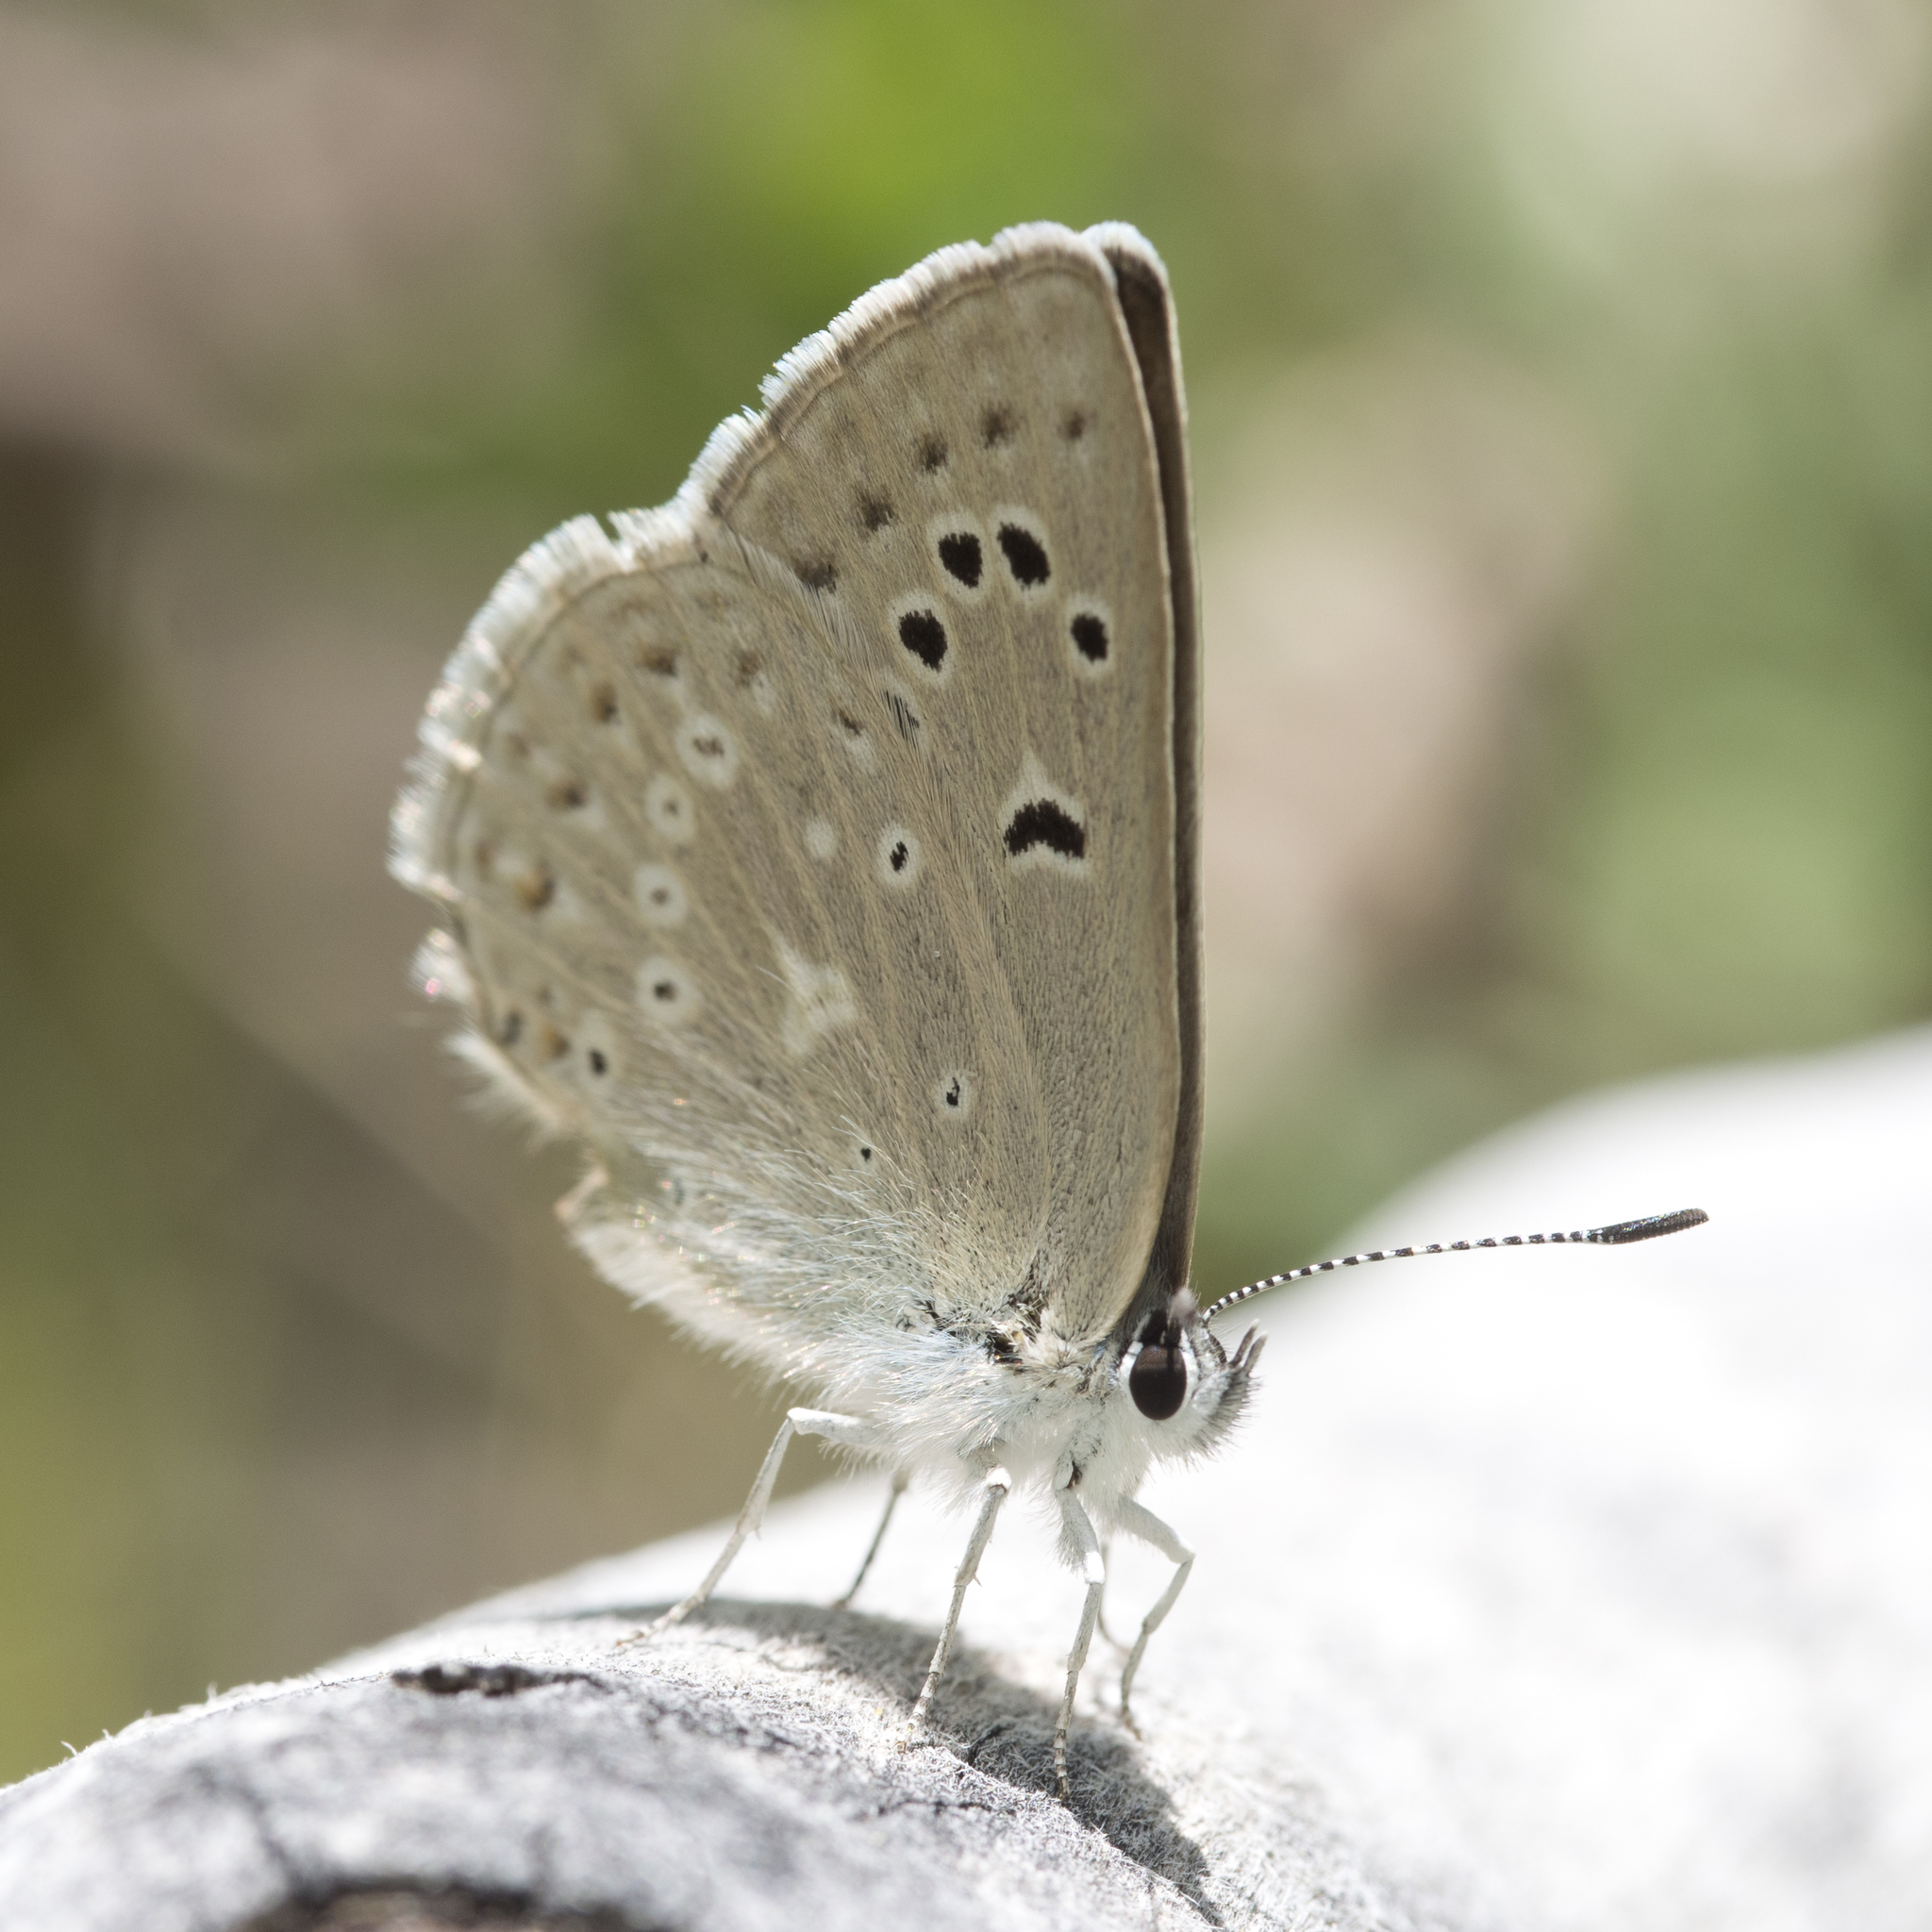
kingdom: Animalia
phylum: Arthropoda
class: Insecta
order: Lepidoptera
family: Lycaenidae
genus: Icaricia
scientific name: Icaricia icarioides
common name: Boisduval's blue
